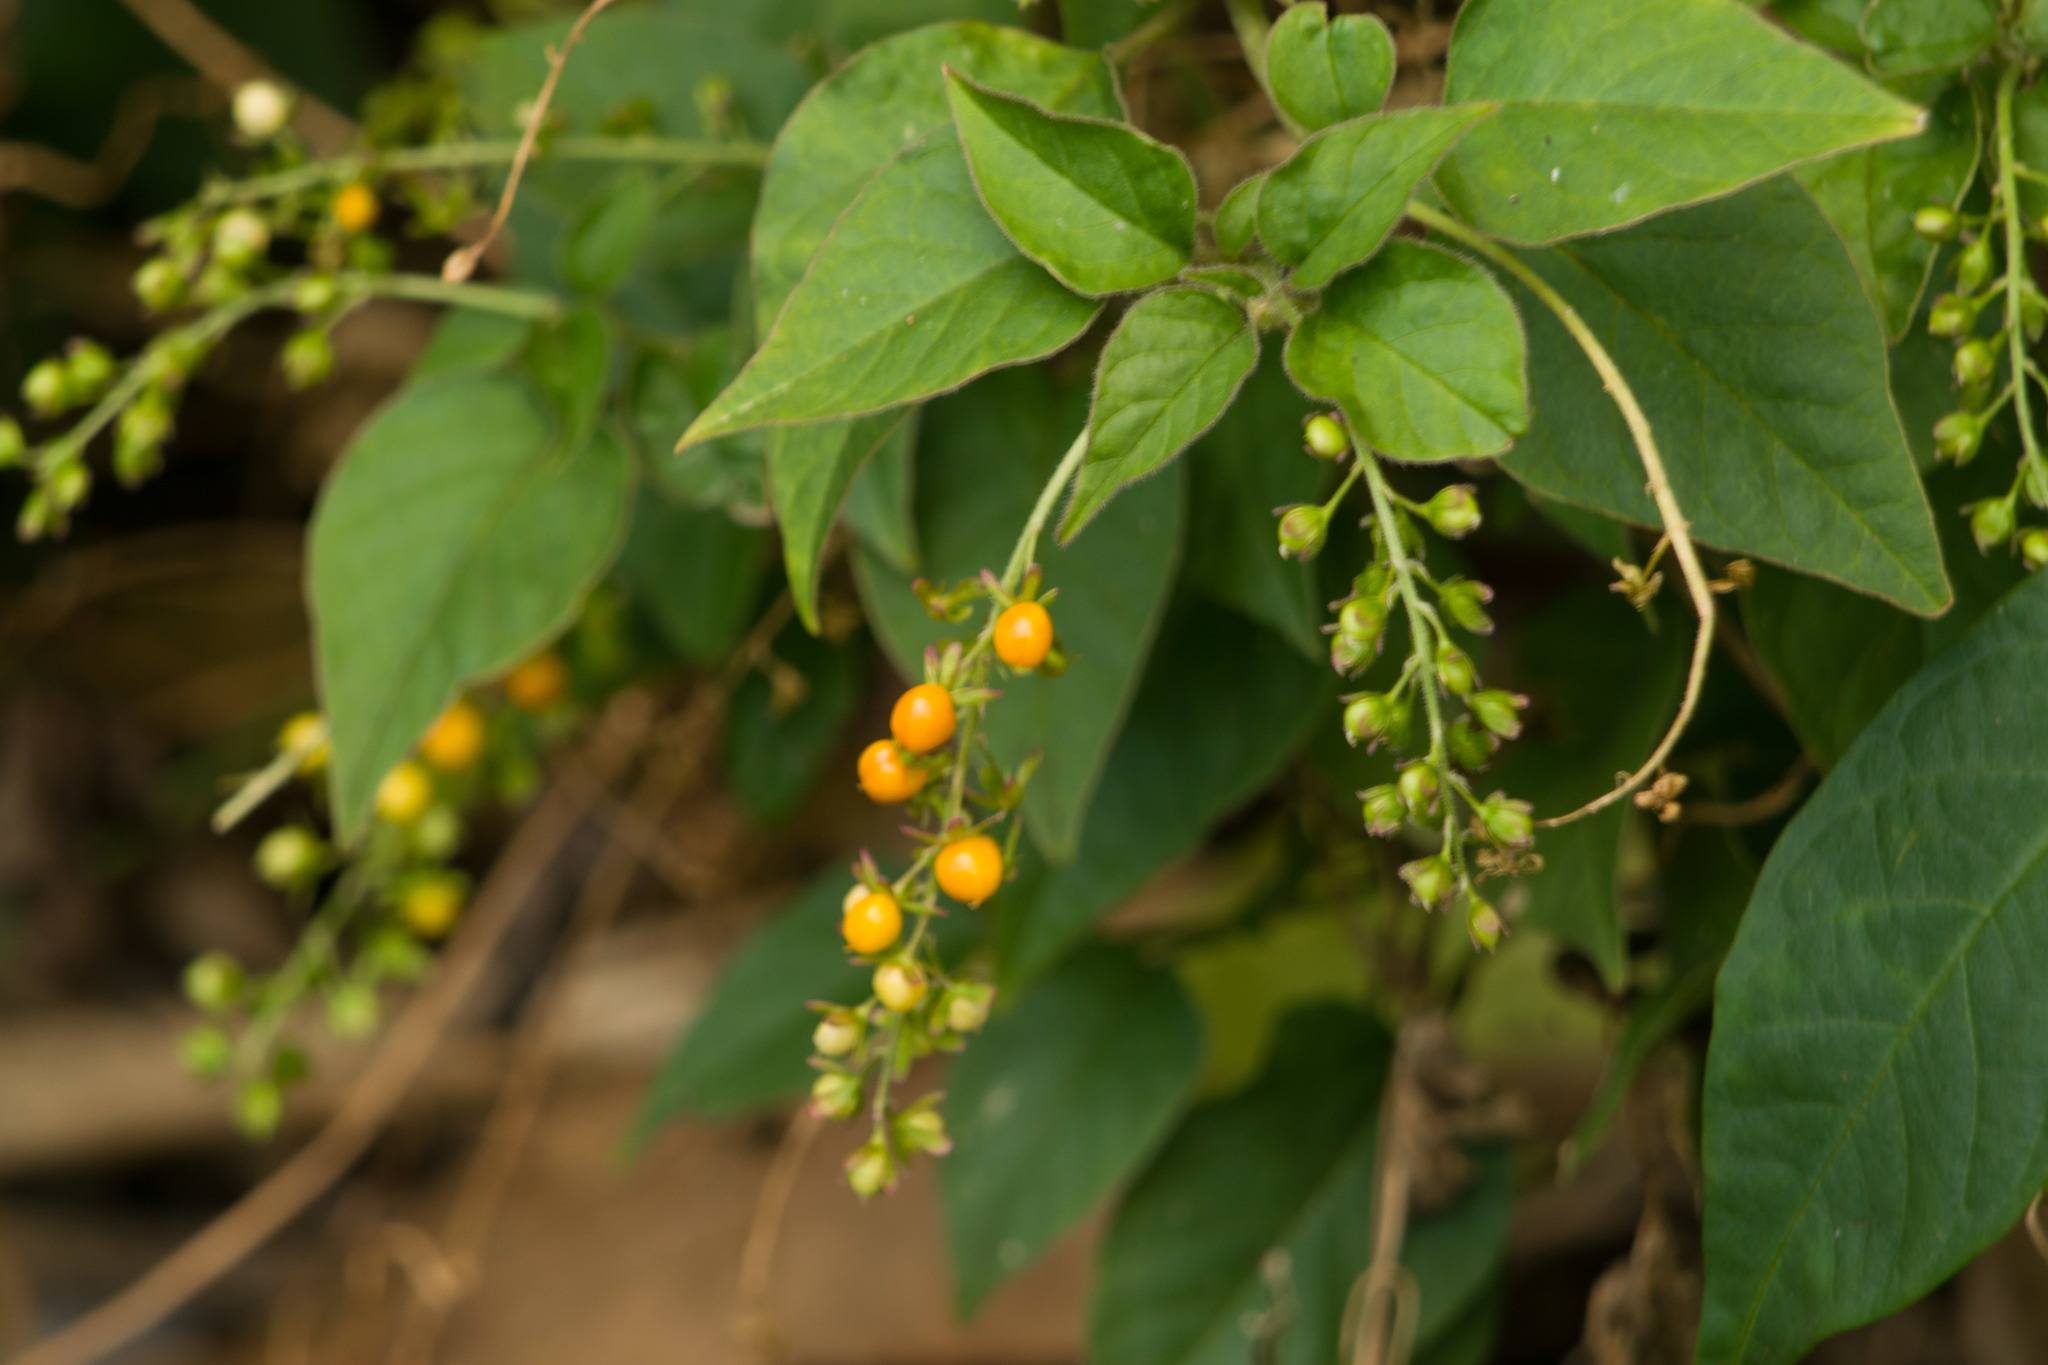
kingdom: Plantae
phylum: Tracheophyta
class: Magnoliopsida
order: Caryophyllales
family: Phytolaccaceae
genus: Rivina
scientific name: Rivina humilis
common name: Rougeplant
